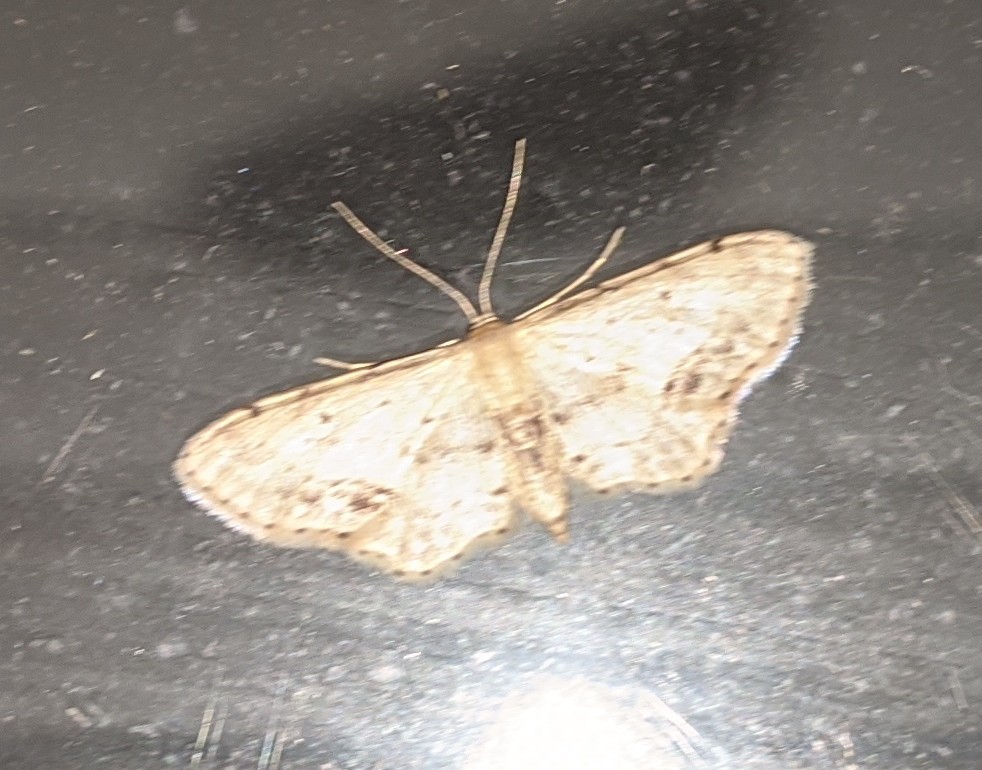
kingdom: Animalia
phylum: Arthropoda
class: Insecta
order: Lepidoptera
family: Geometridae
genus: Idaea
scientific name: Idaea dimidiata
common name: Single-dotted wave
